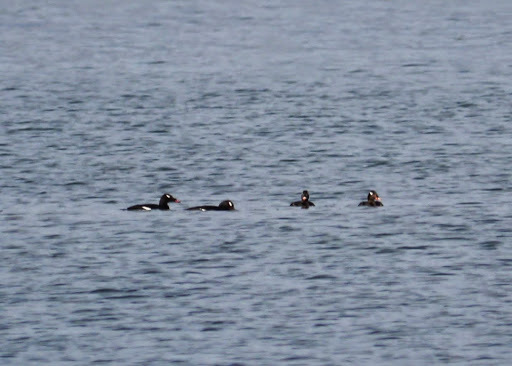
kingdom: Animalia
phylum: Chordata
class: Aves
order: Anseriformes
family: Anatidae
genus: Melanitta
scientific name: Melanitta deglandi
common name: White-winged scoter
